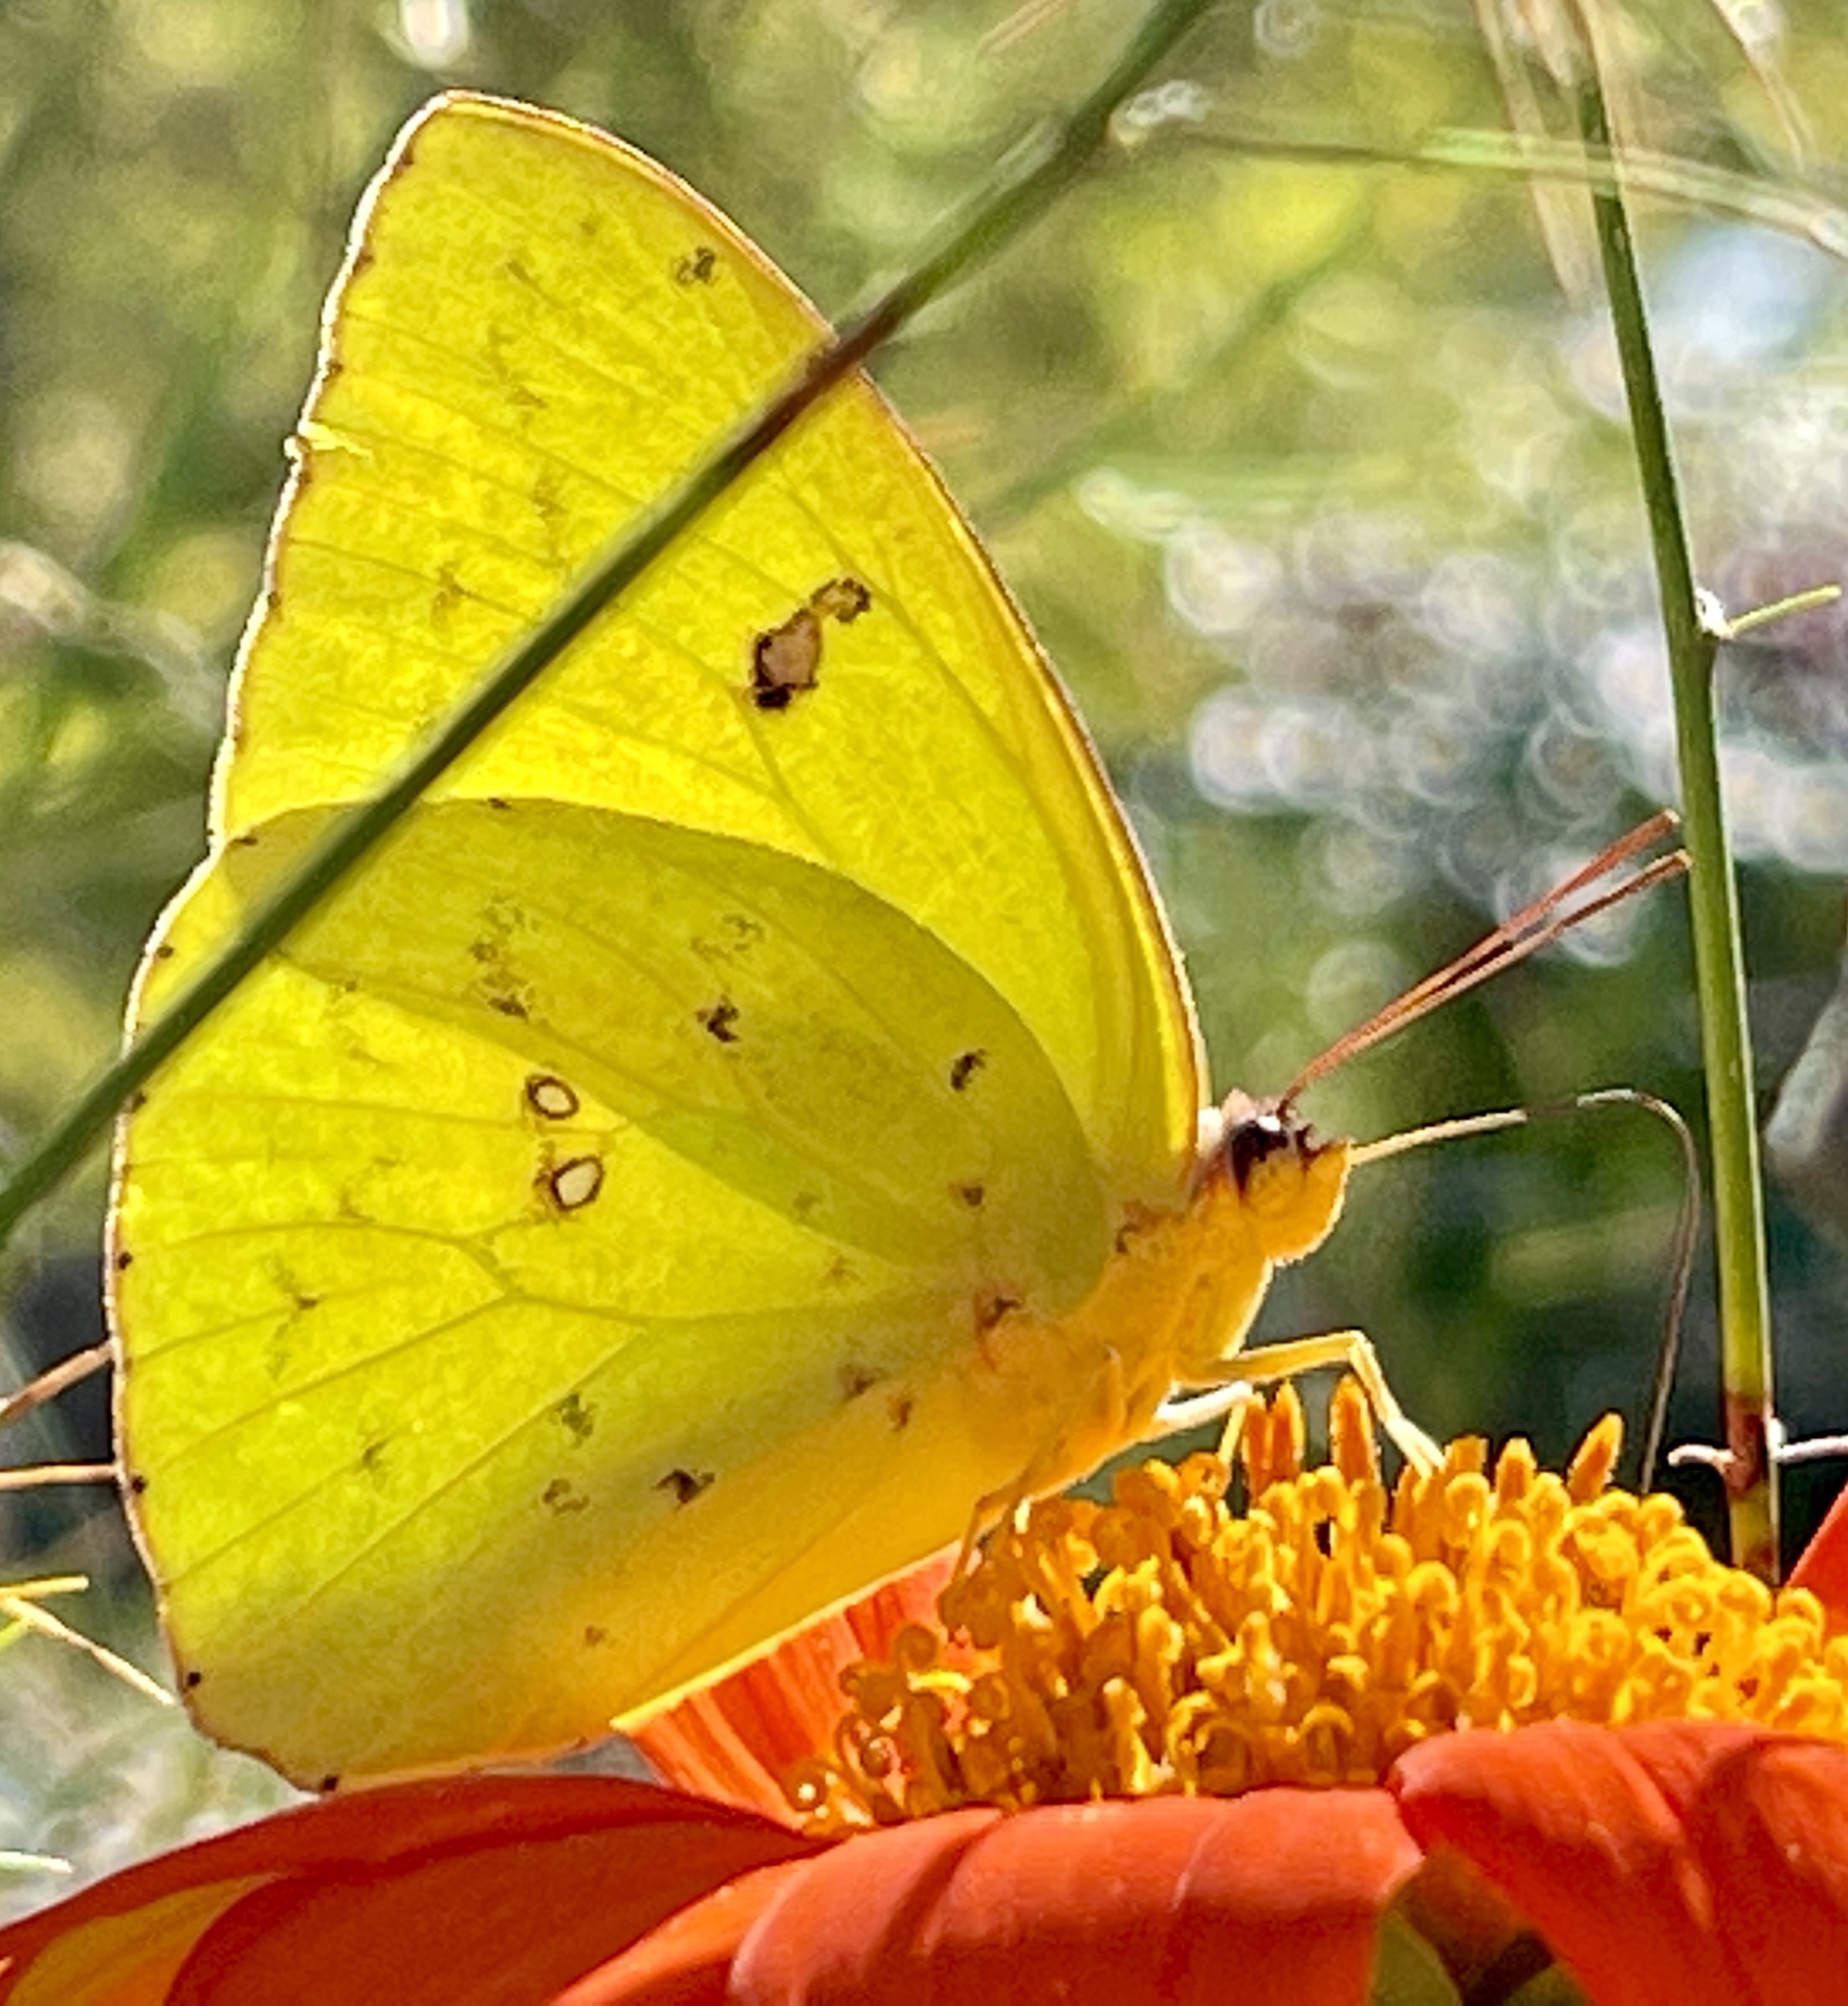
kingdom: Animalia
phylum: Arthropoda
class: Insecta
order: Lepidoptera
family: Pieridae
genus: Phoebis
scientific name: Phoebis sennae
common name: Cloudless sulphur
